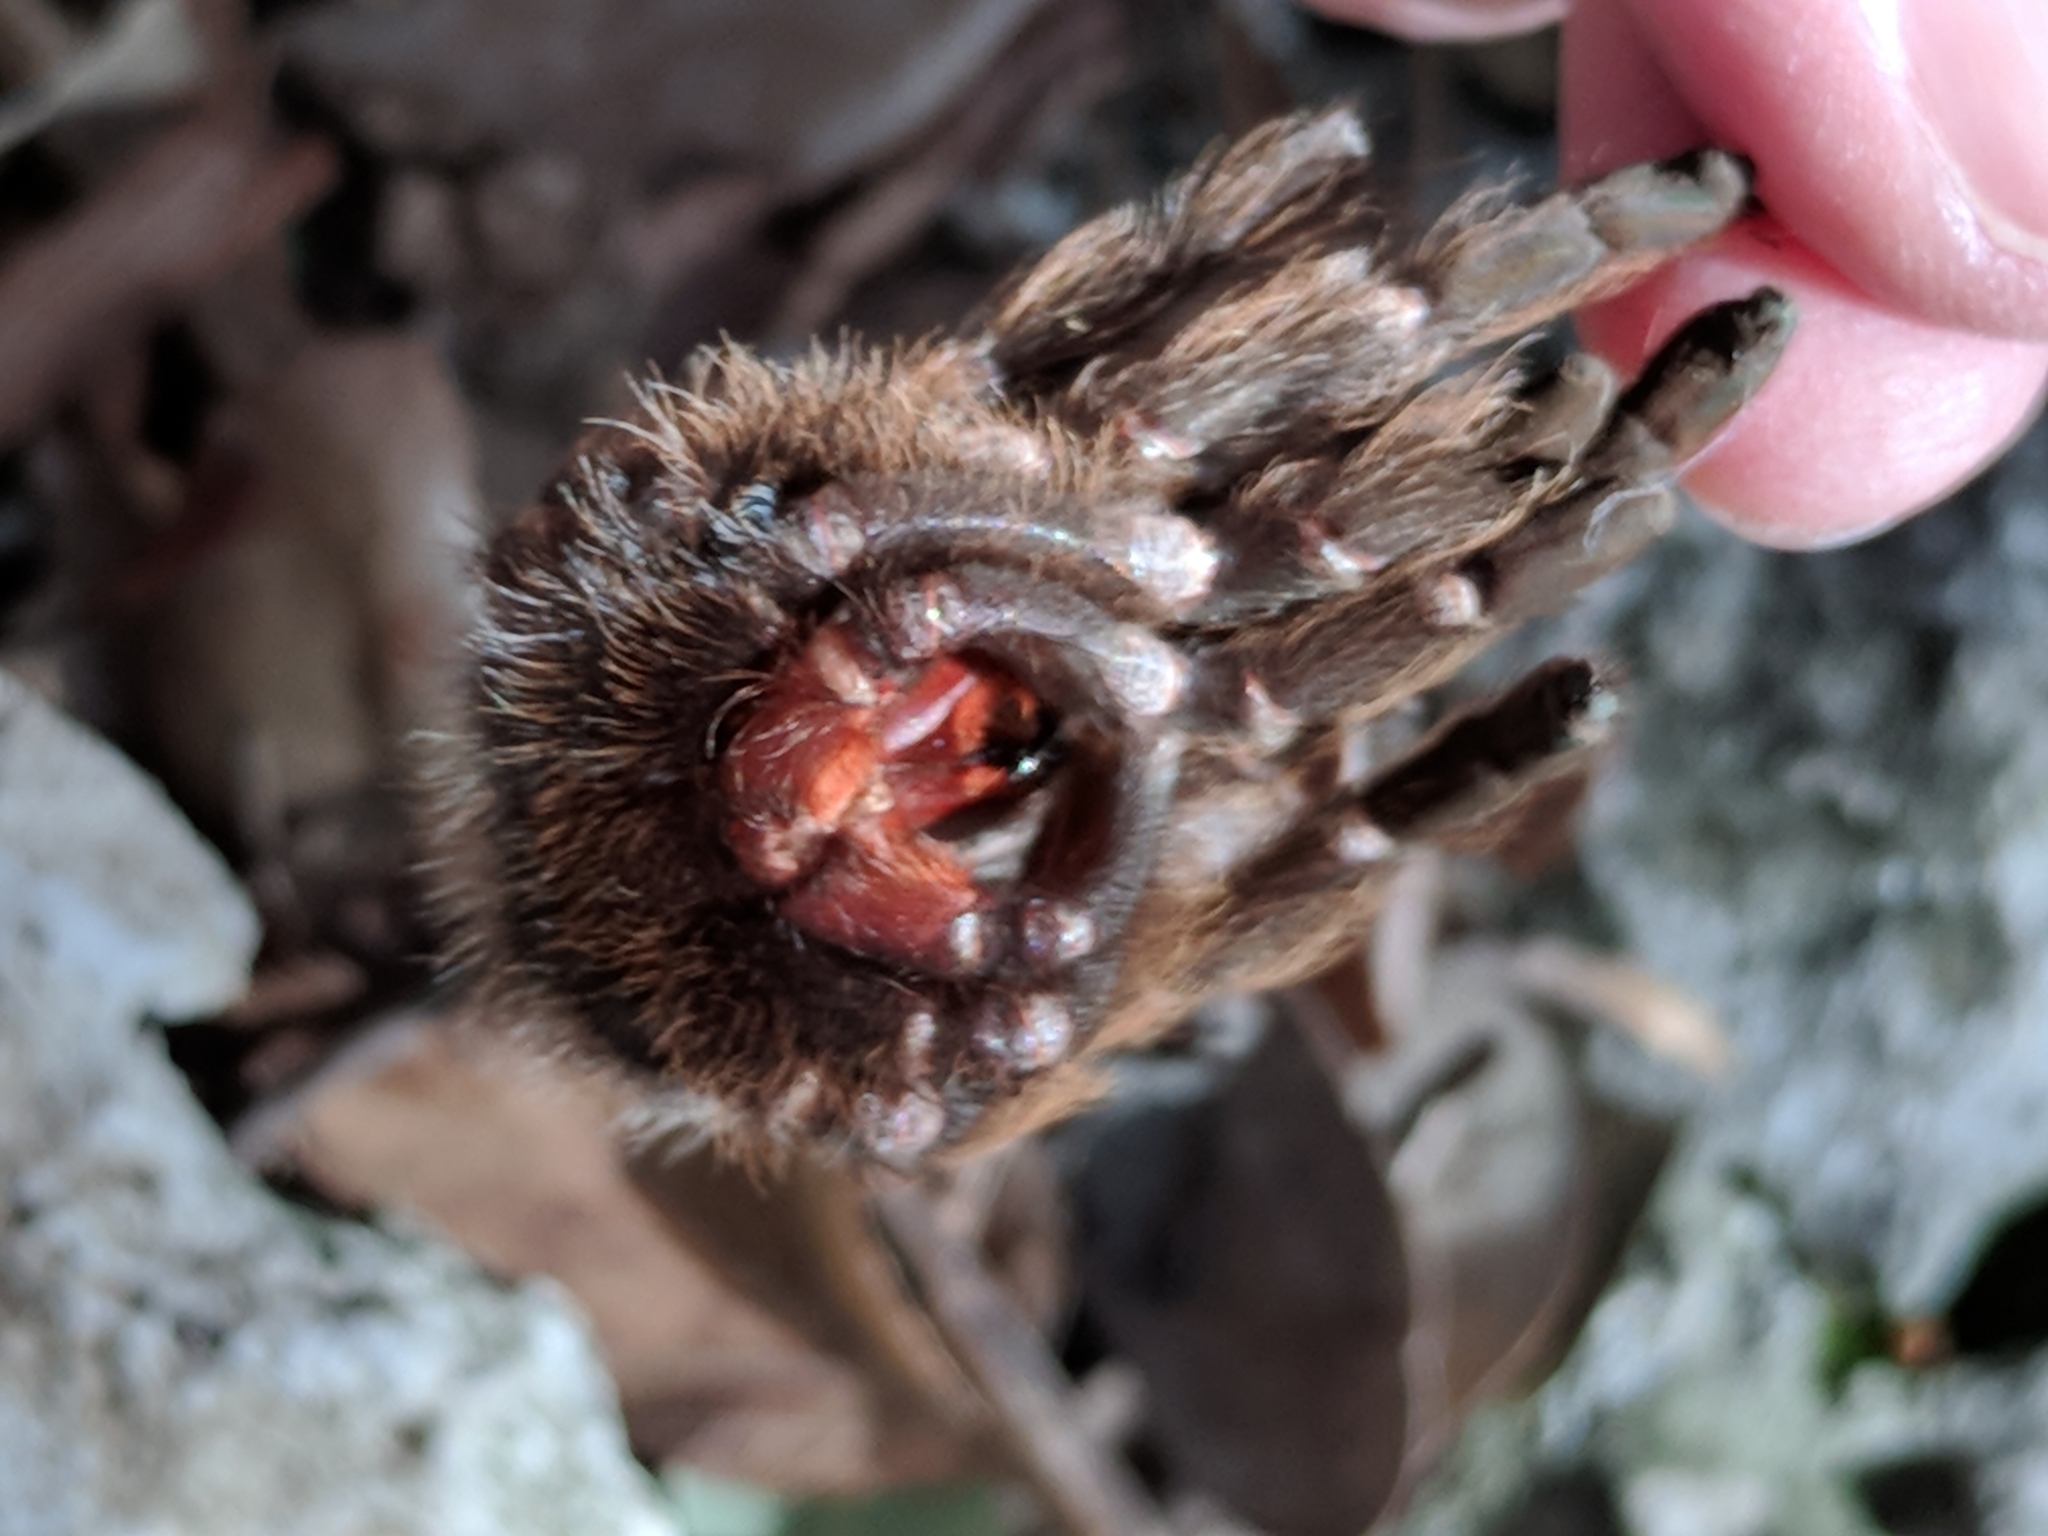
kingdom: Animalia
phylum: Arthropoda
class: Arachnida
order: Araneae
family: Theraphosidae
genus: Aphonopelma
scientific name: Aphonopelma hentzi
